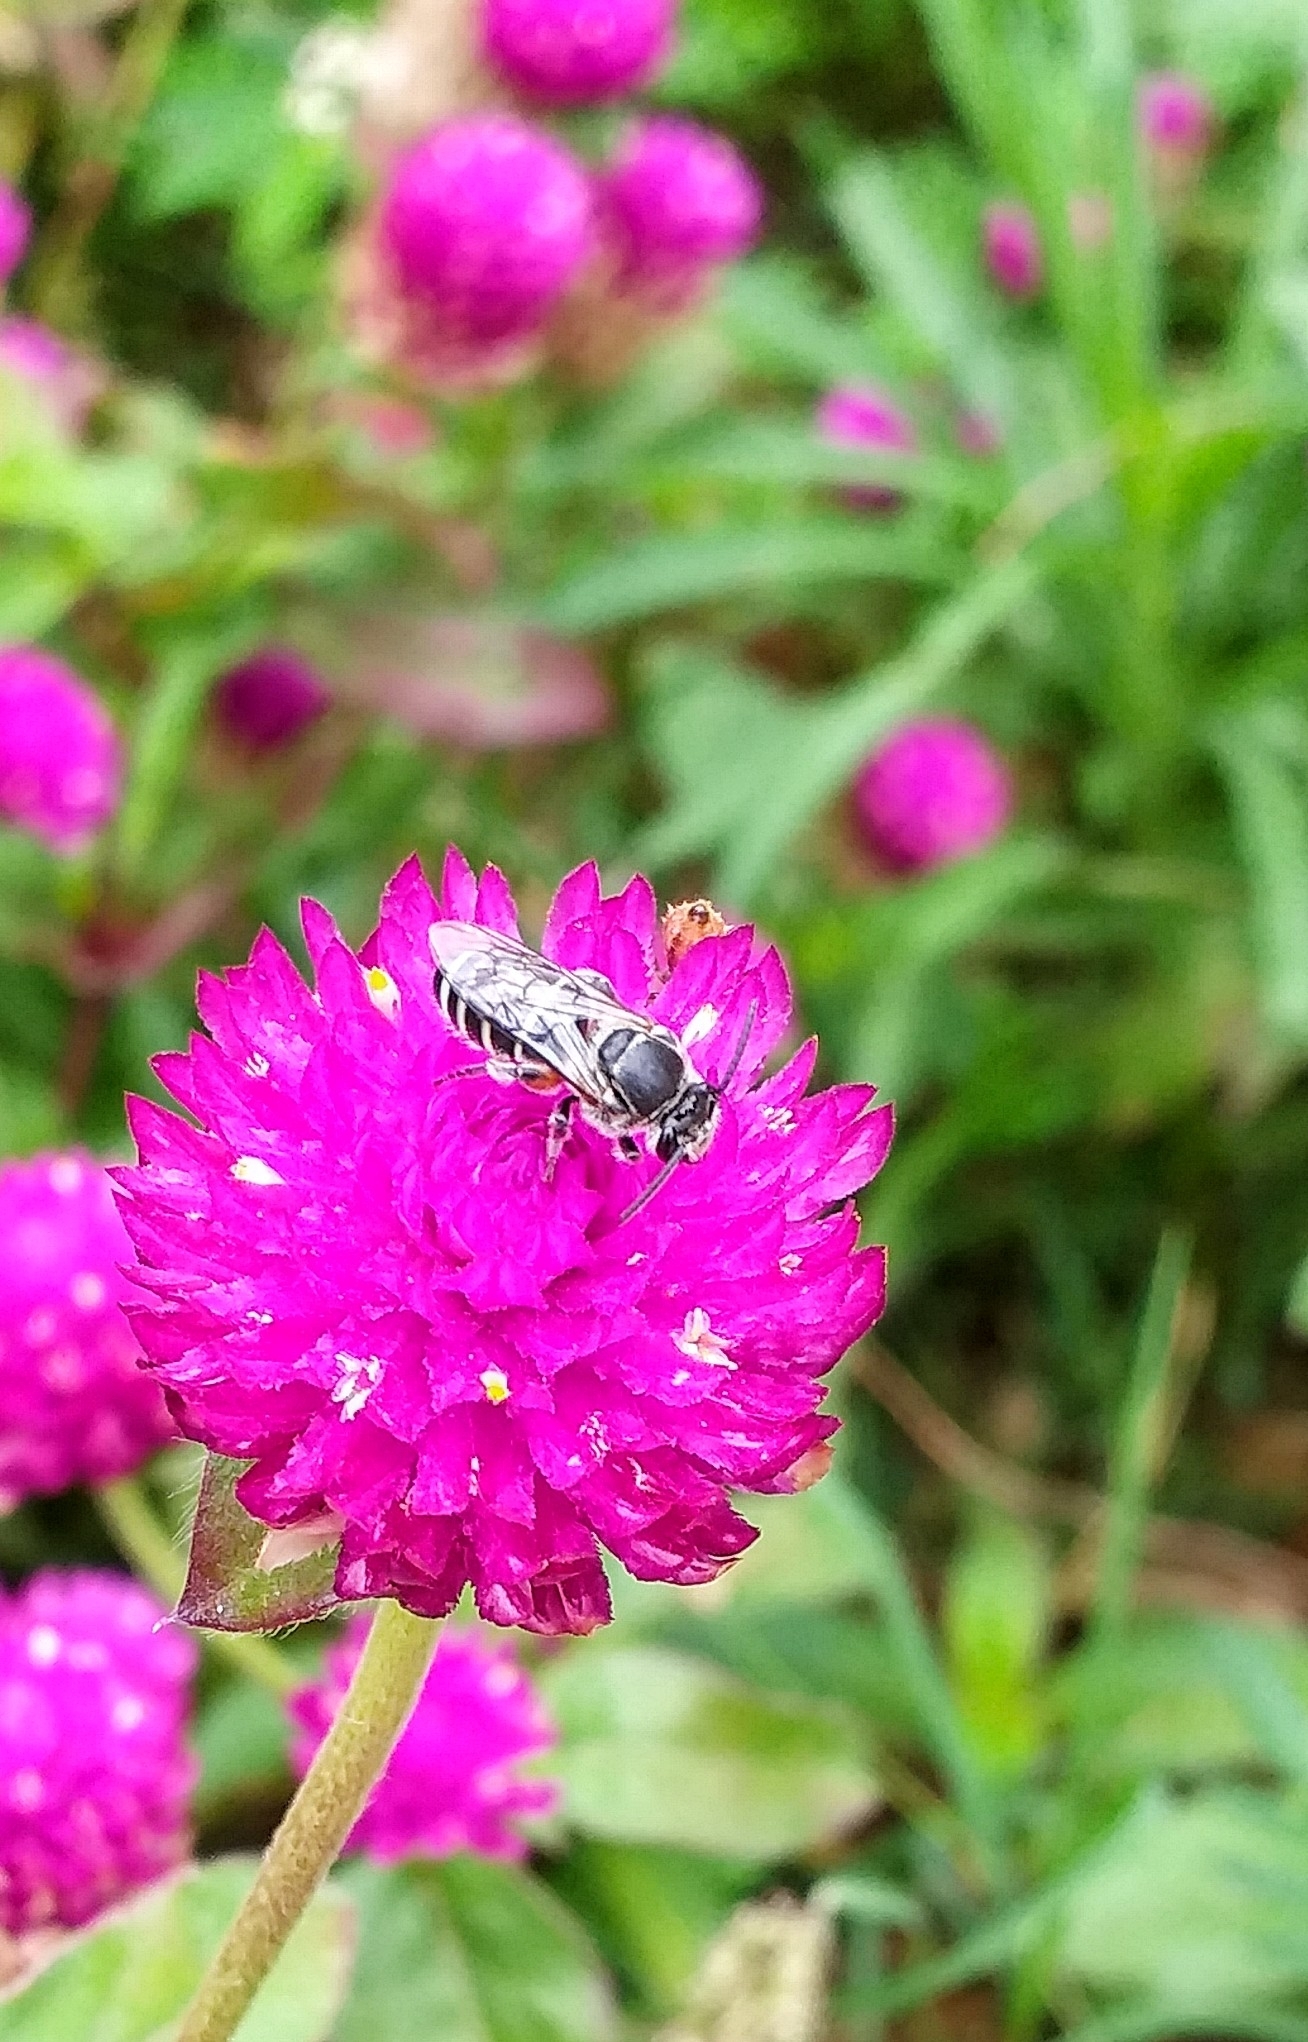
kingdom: Animalia
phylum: Arthropoda
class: Insecta
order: Hymenoptera
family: Halictidae
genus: Nomia
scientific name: Nomia westwoodi
